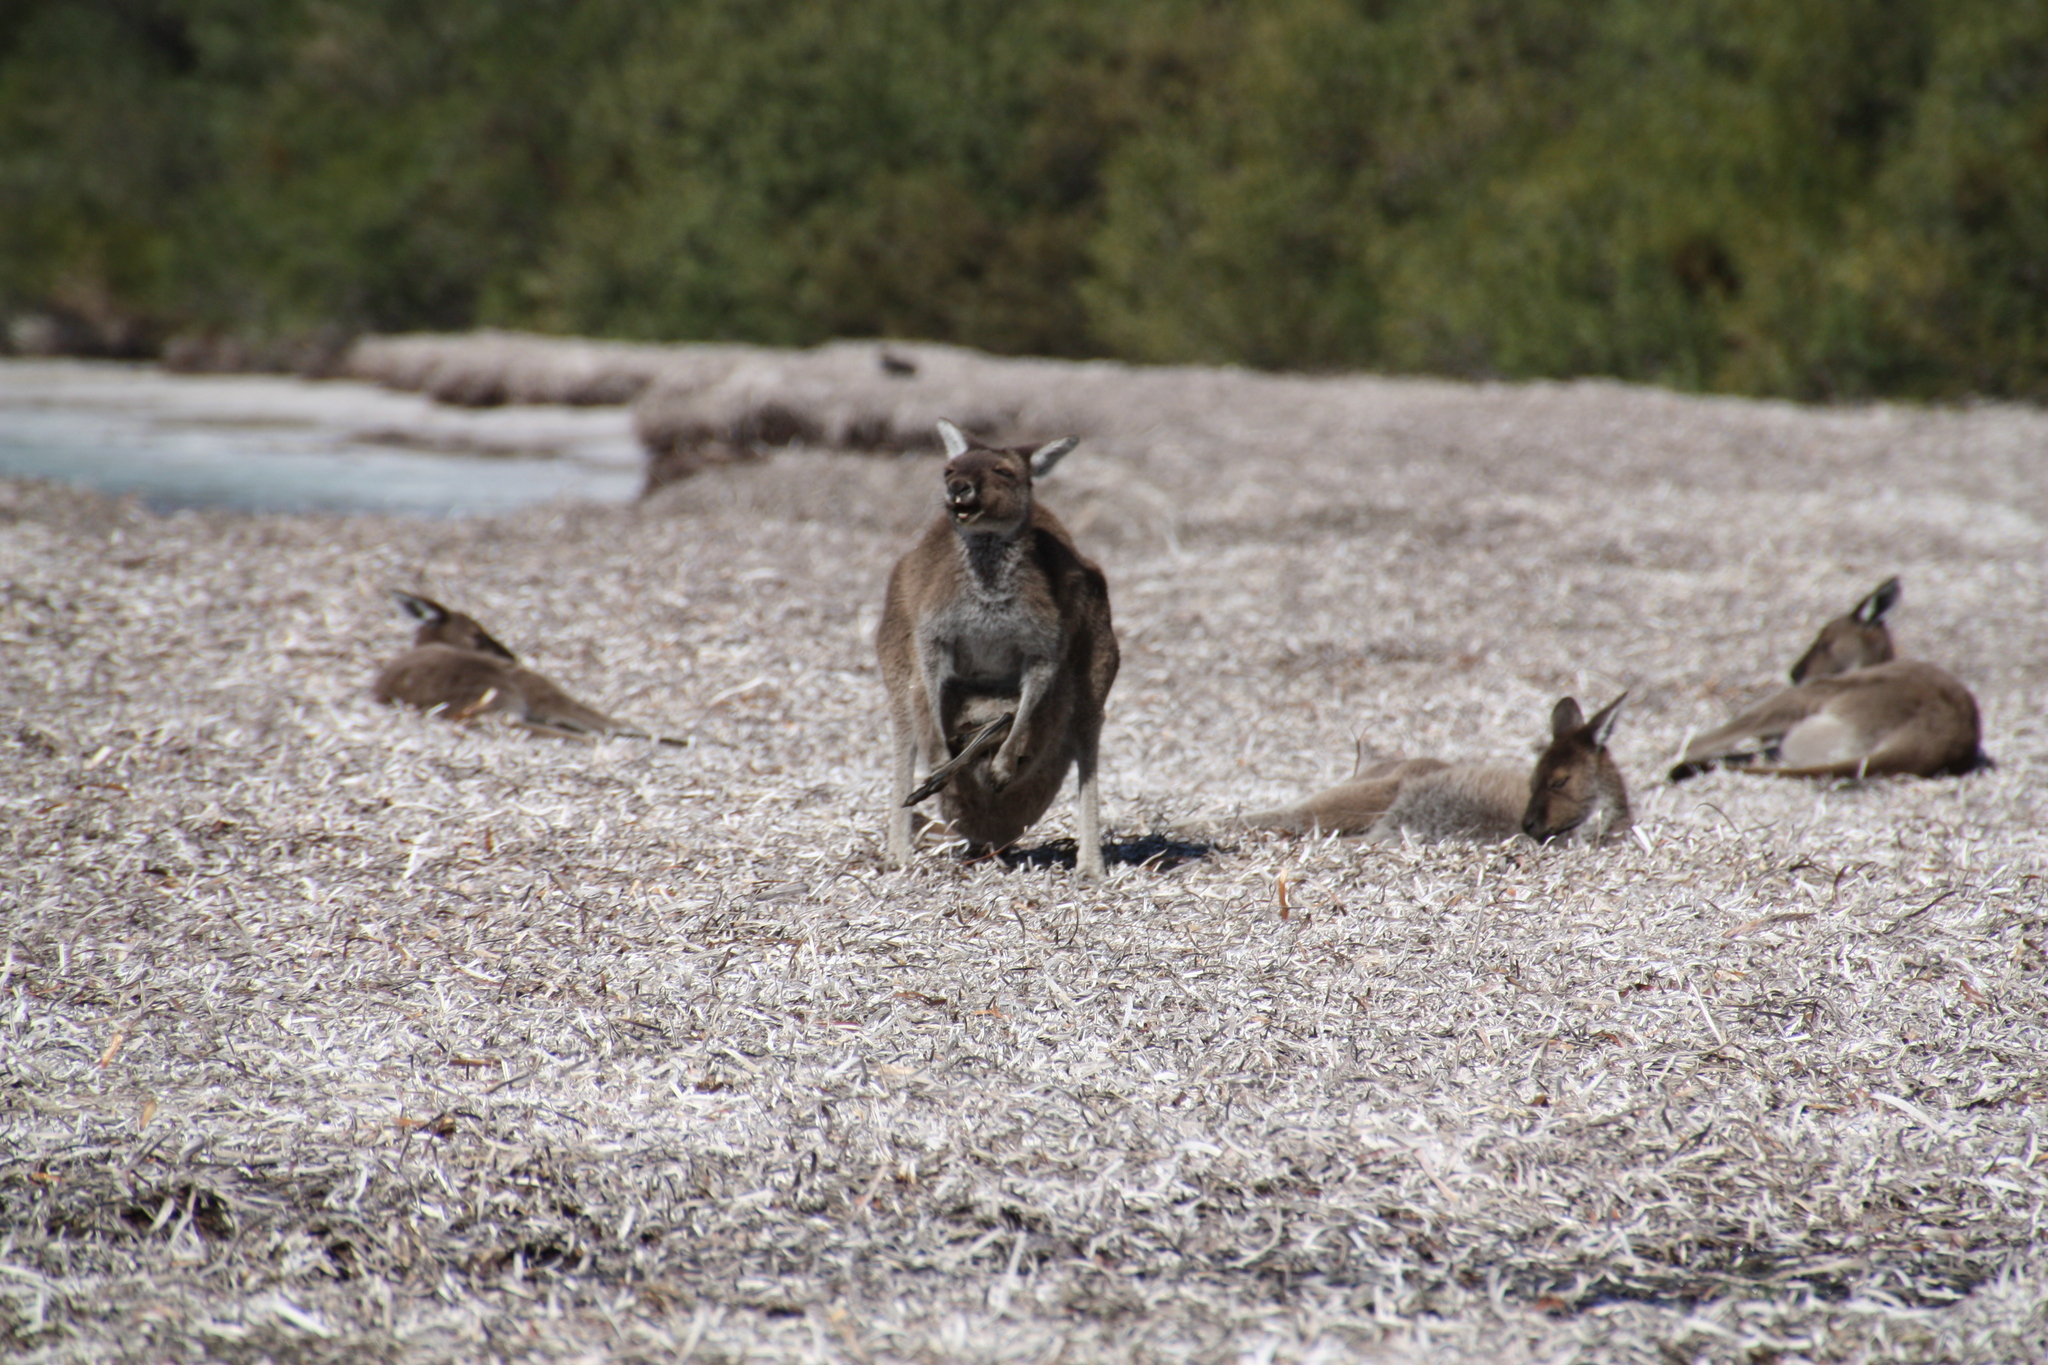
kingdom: Animalia
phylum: Chordata
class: Mammalia
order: Diprotodontia
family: Macropodidae
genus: Macropus
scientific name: Macropus fuliginosus
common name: Western grey kangaroo
